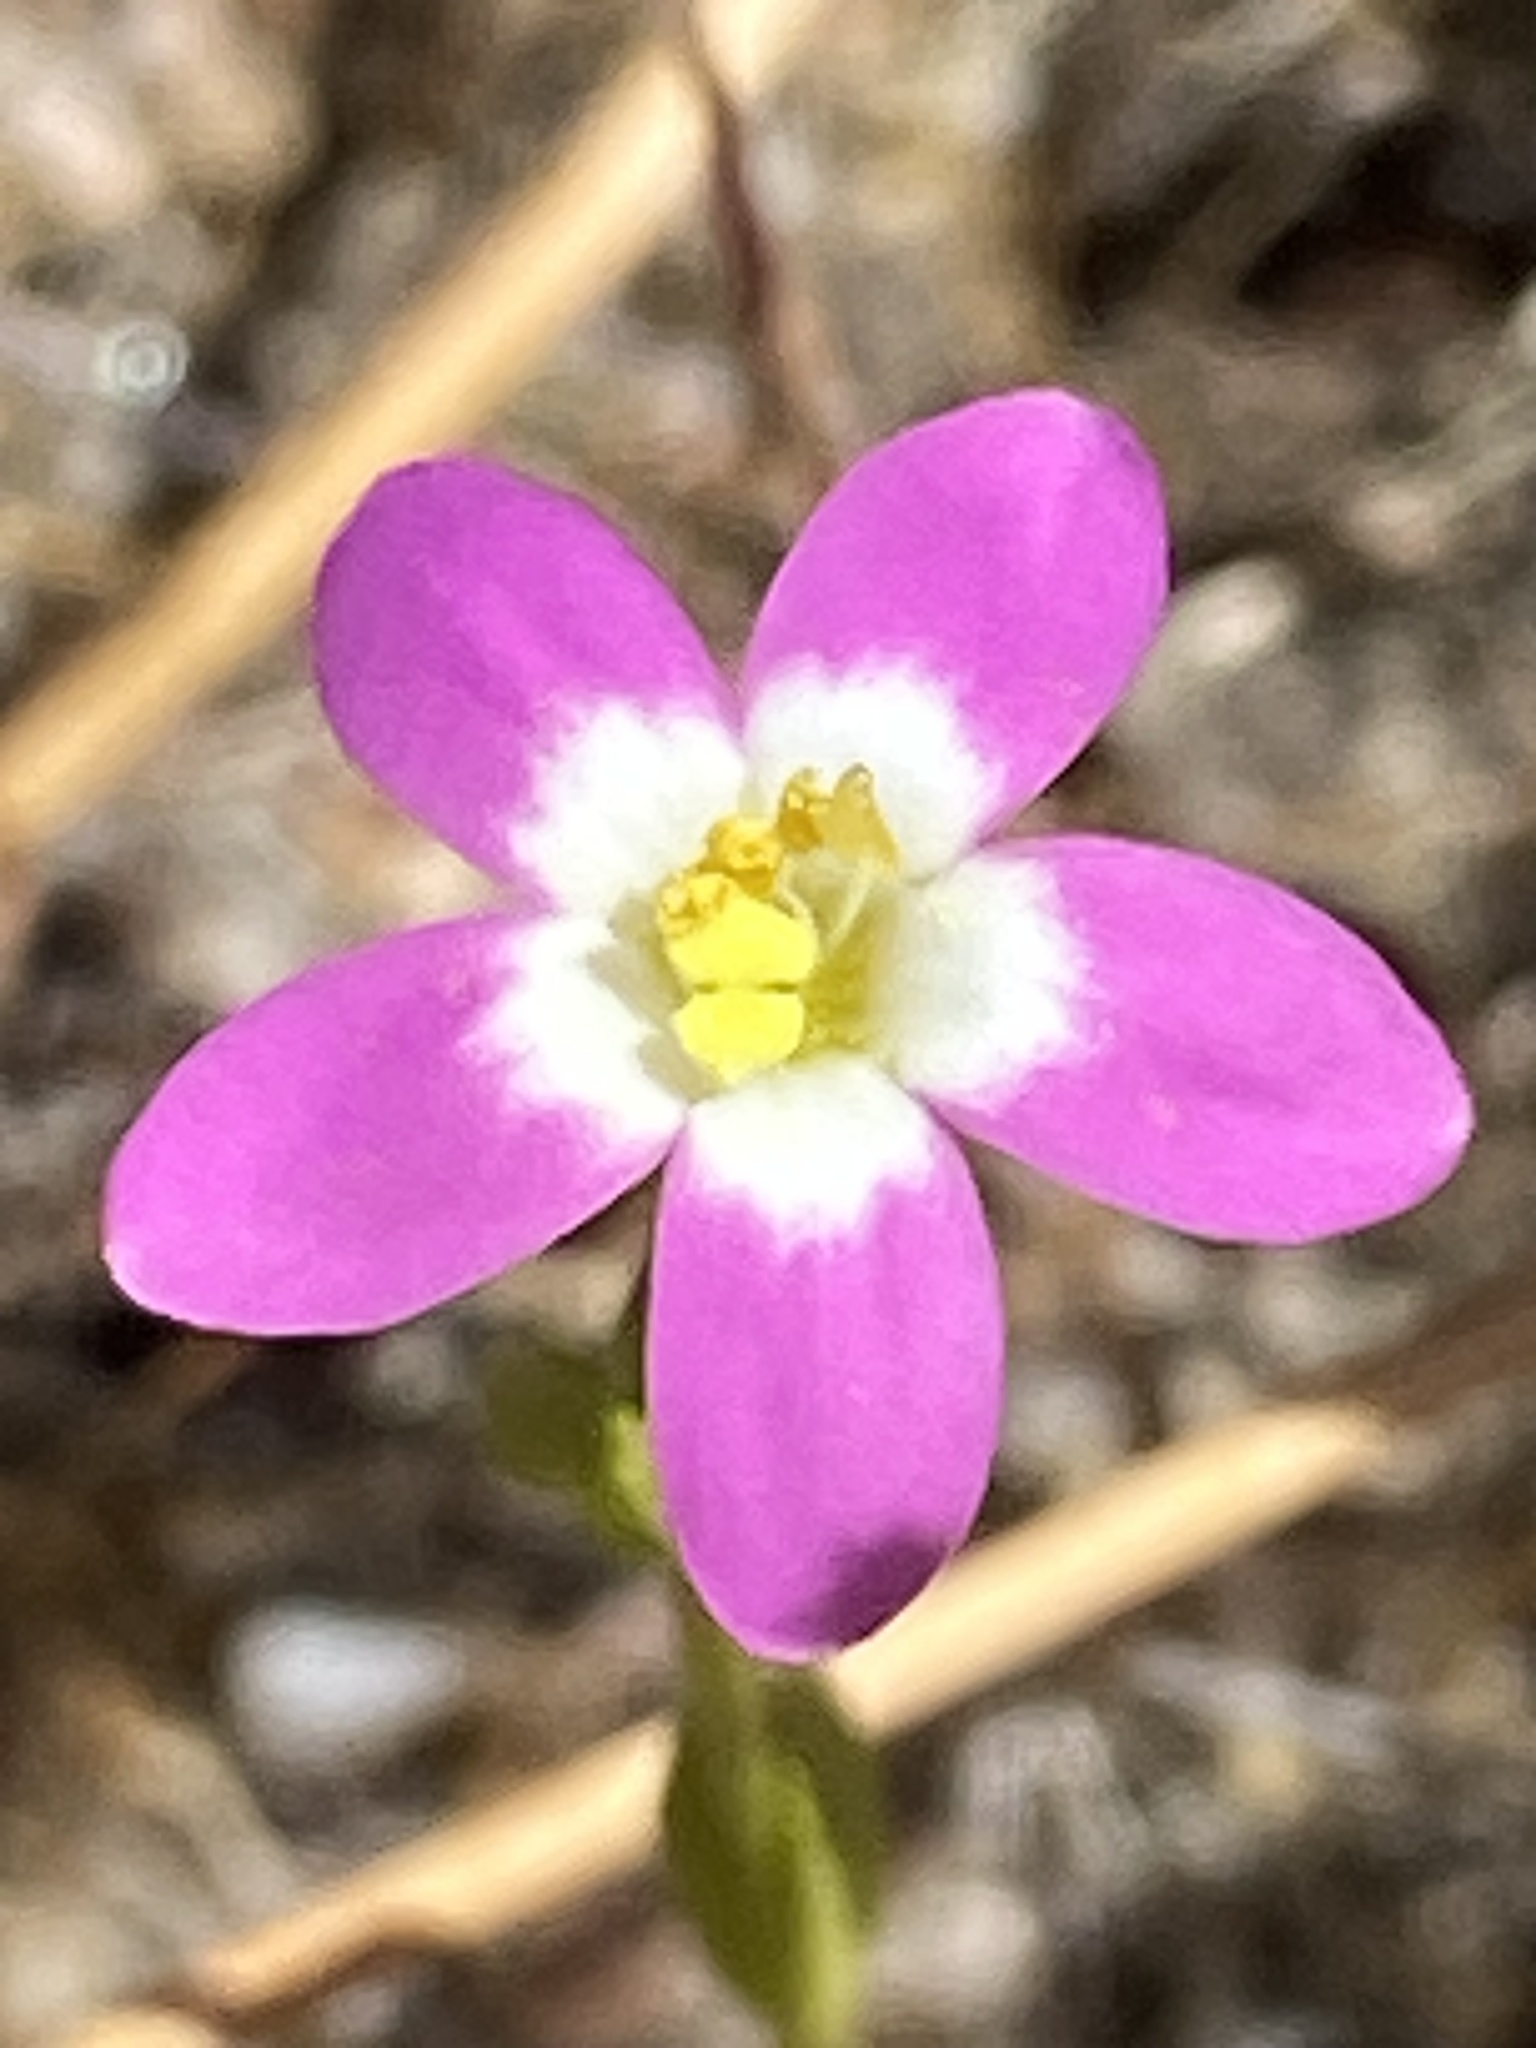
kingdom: Plantae
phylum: Tracheophyta
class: Magnoliopsida
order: Gentianales
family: Gentianaceae
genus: Zeltnera
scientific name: Zeltnera davyi
